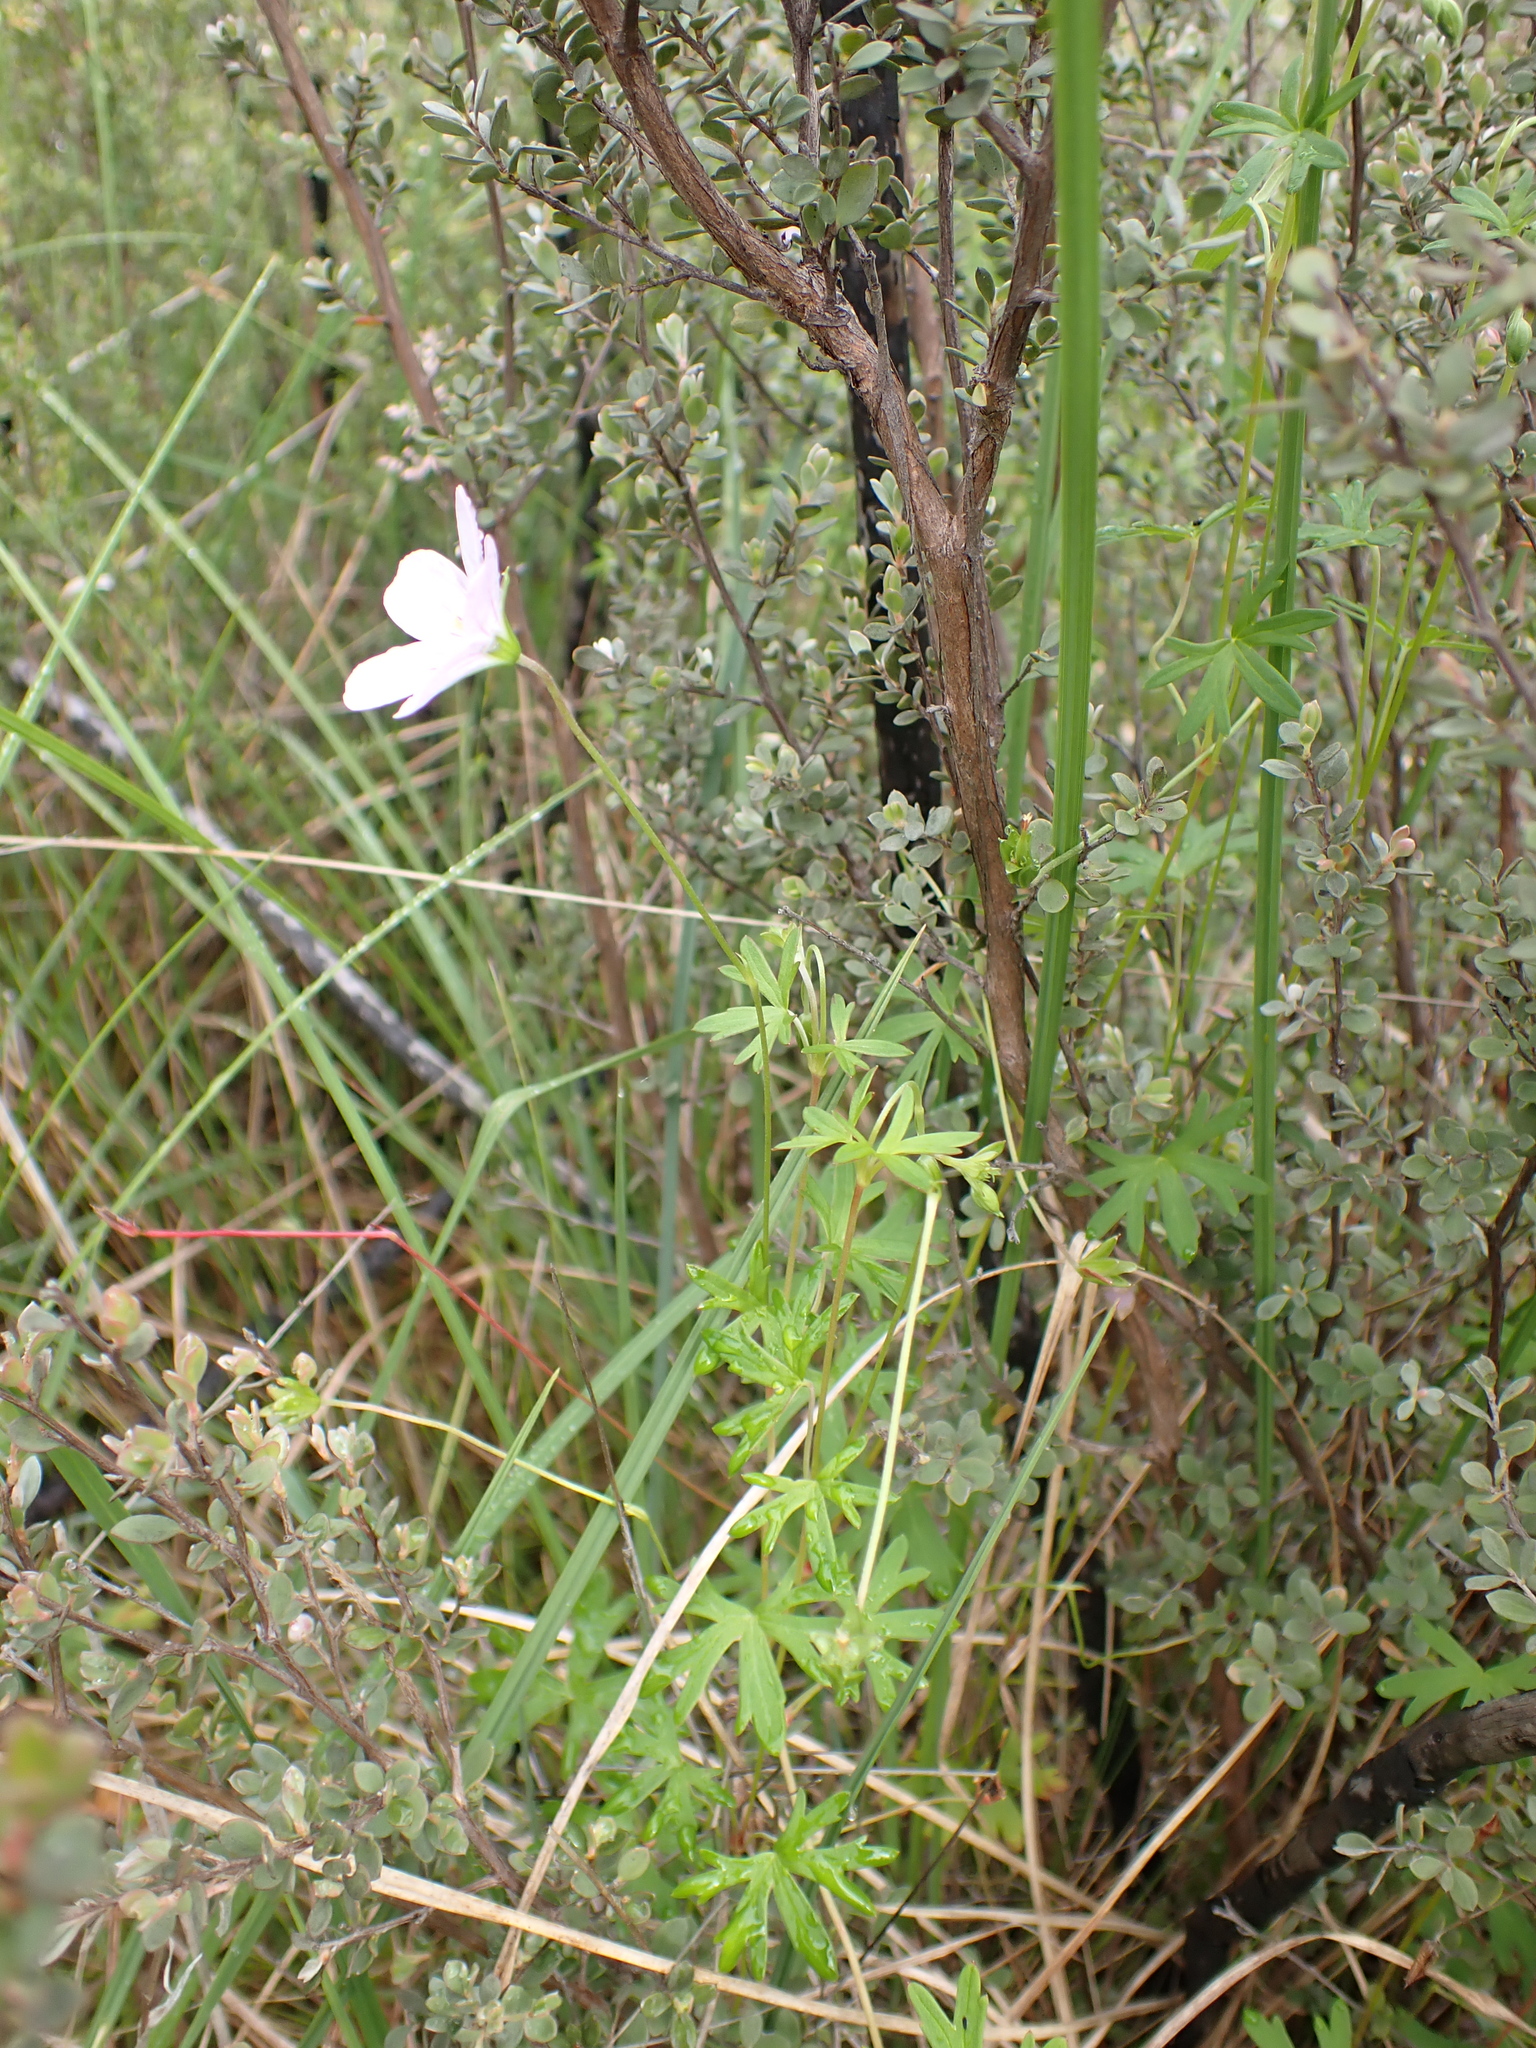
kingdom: Plantae
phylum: Tracheophyta
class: Magnoliopsida
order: Geraniales
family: Geraniaceae
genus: Geranium
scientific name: Geranium neglectum
